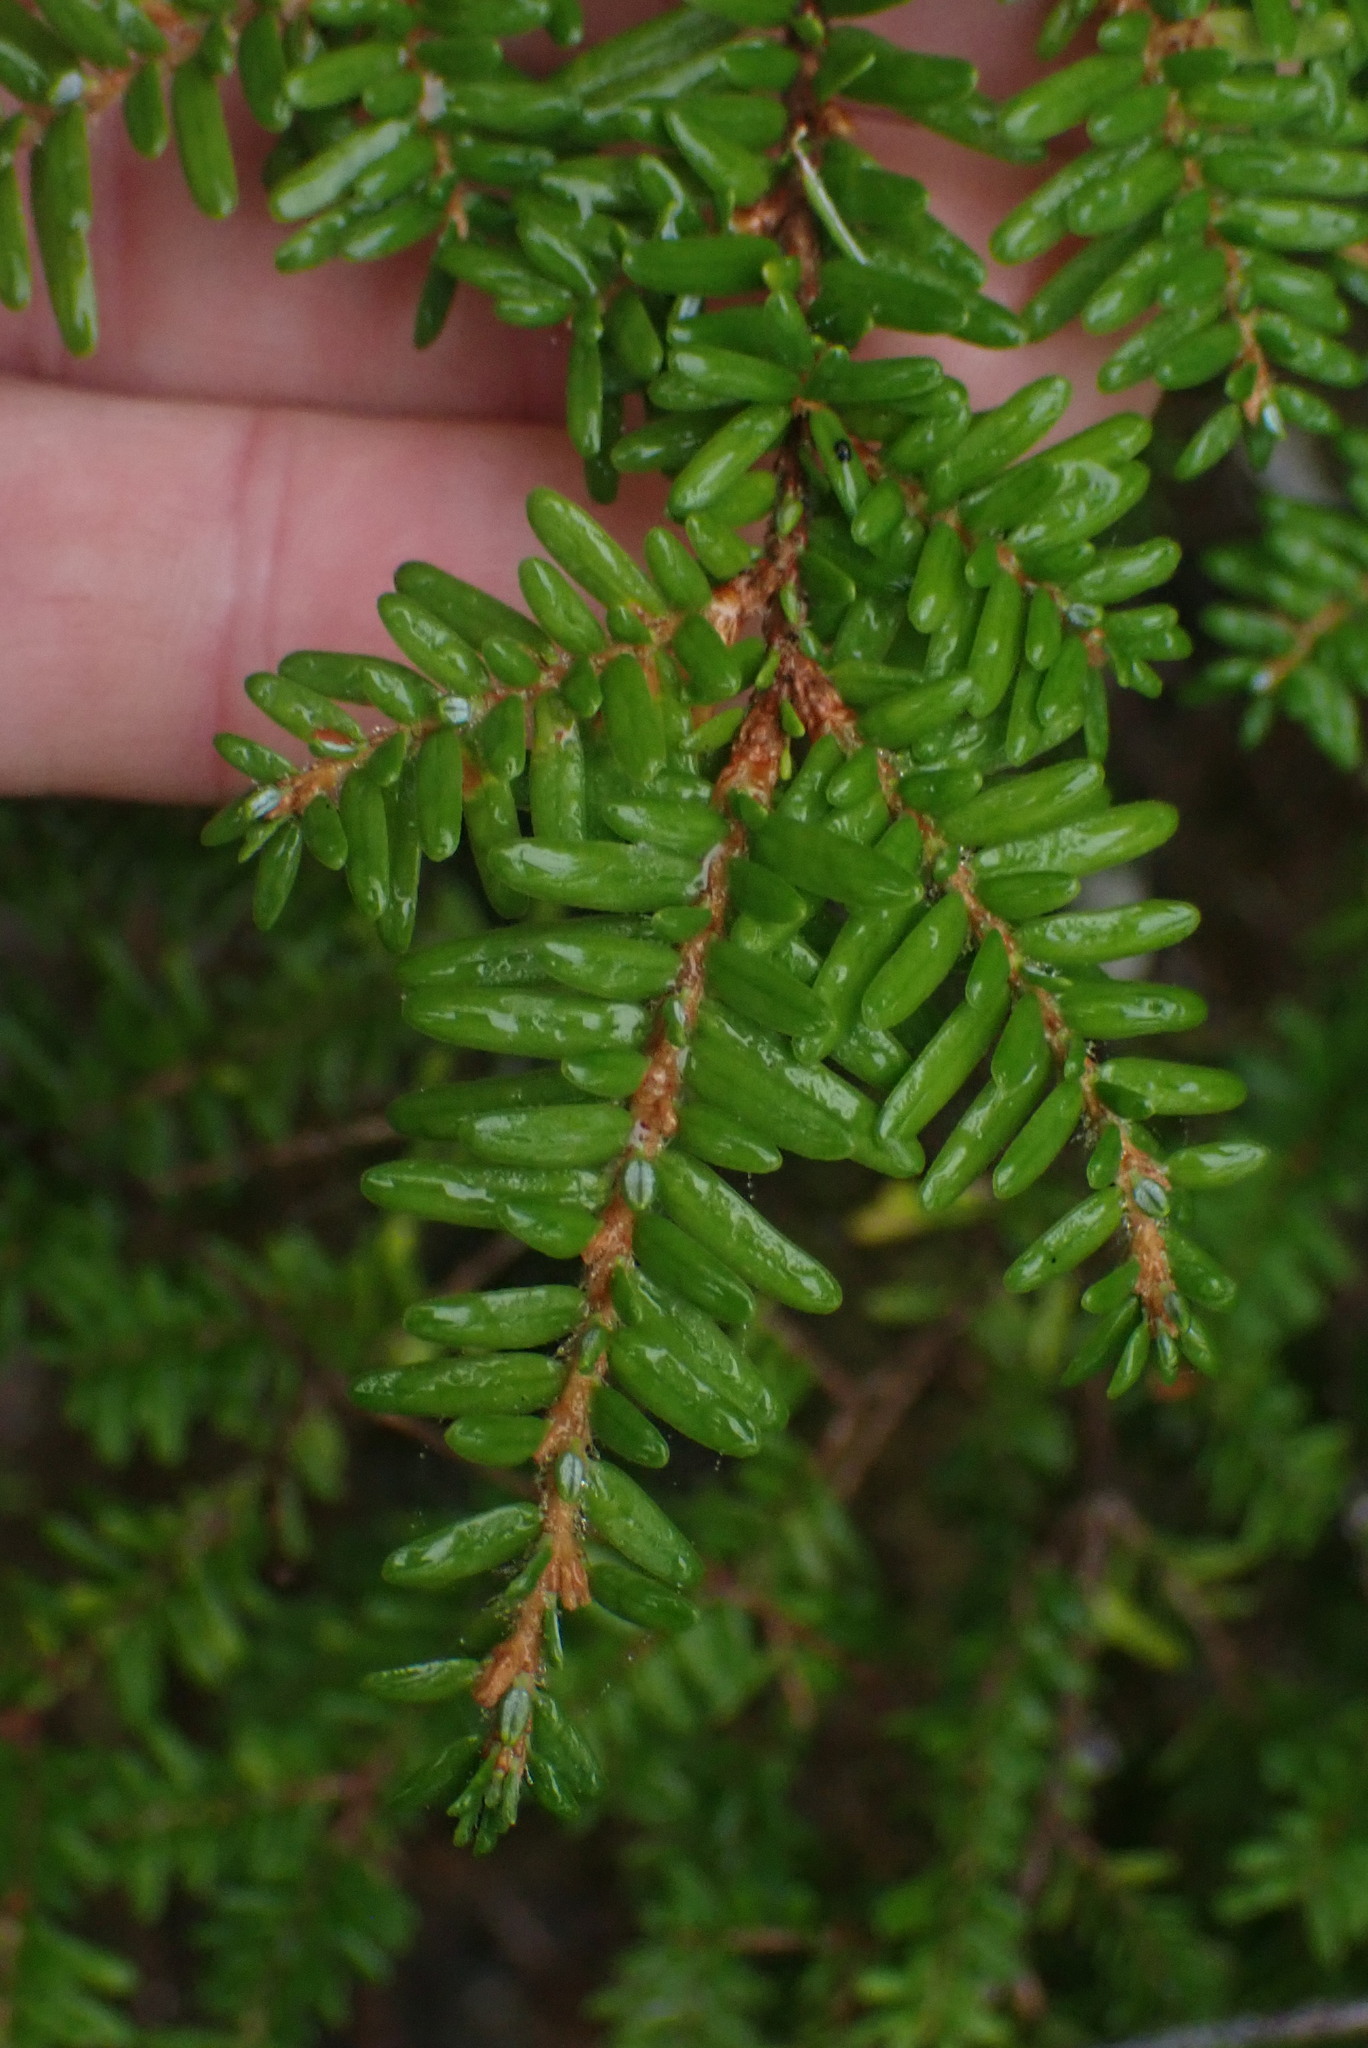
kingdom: Plantae
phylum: Tracheophyta
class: Pinopsida
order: Pinales
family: Pinaceae
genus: Tsuga
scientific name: Tsuga heterophylla
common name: Western hemlock
